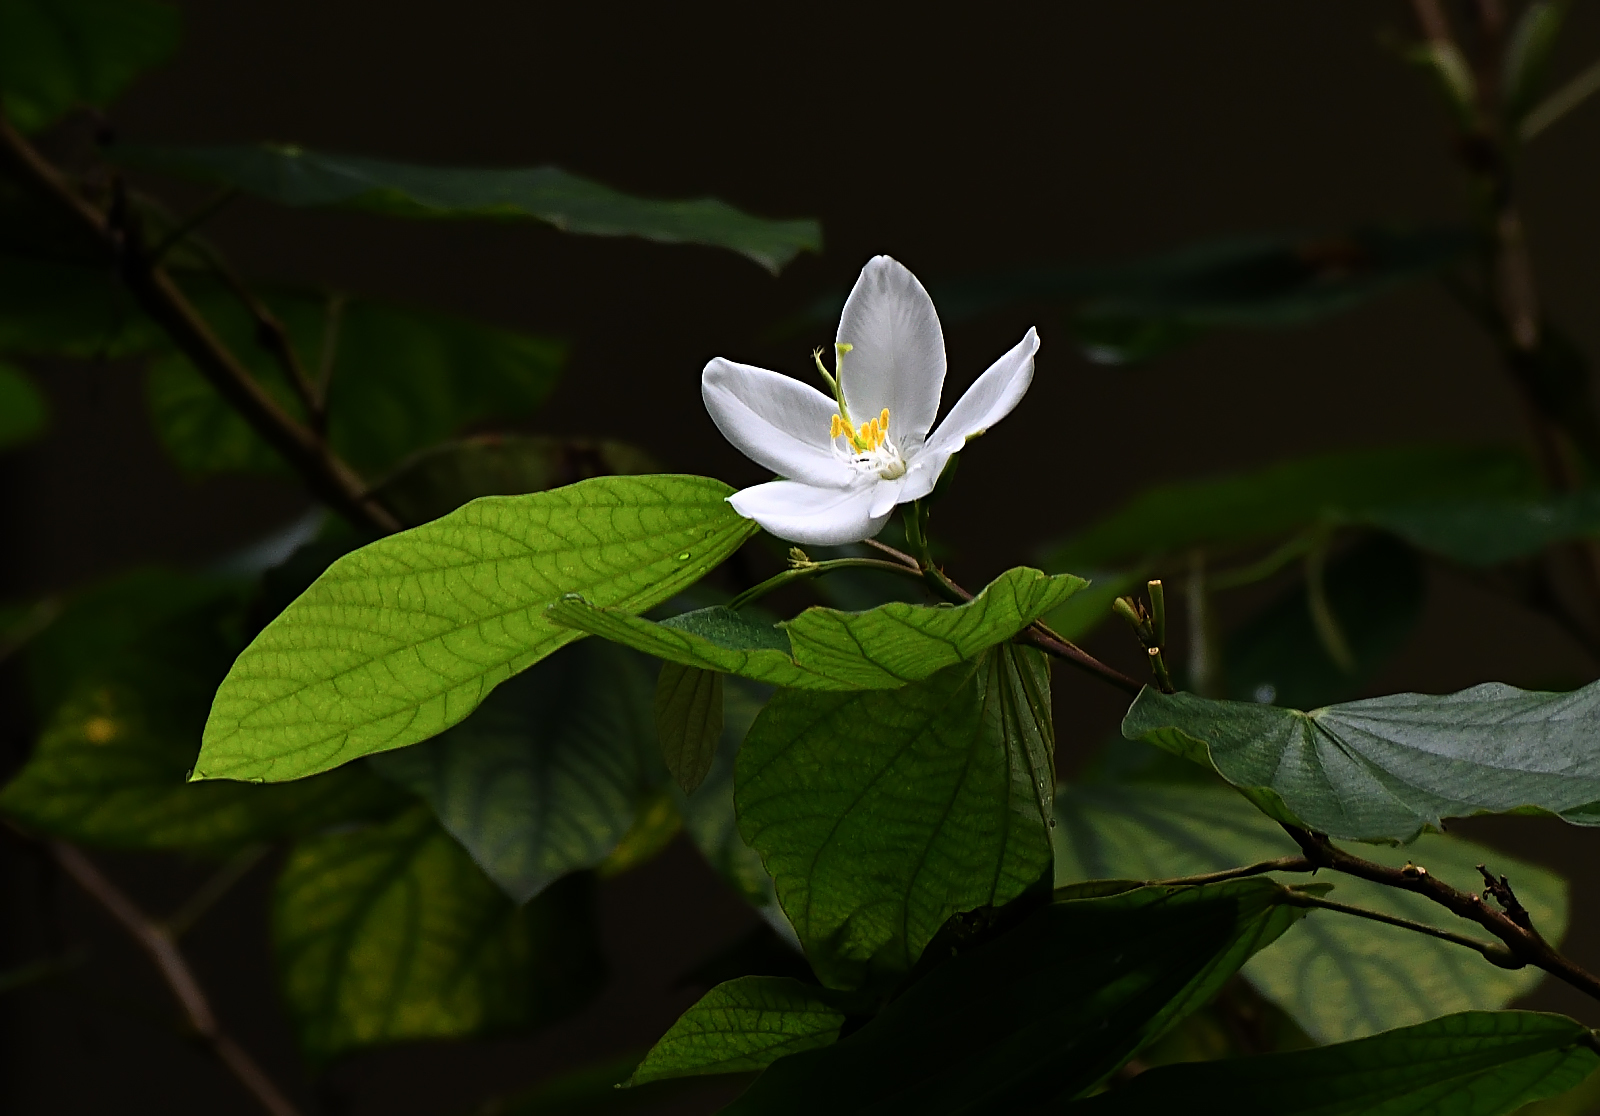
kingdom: Plantae
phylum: Tracheophyta
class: Magnoliopsida
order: Fabales
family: Fabaceae
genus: Bauhinia
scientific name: Bauhinia acuminata
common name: Dwarf white bauhinia
